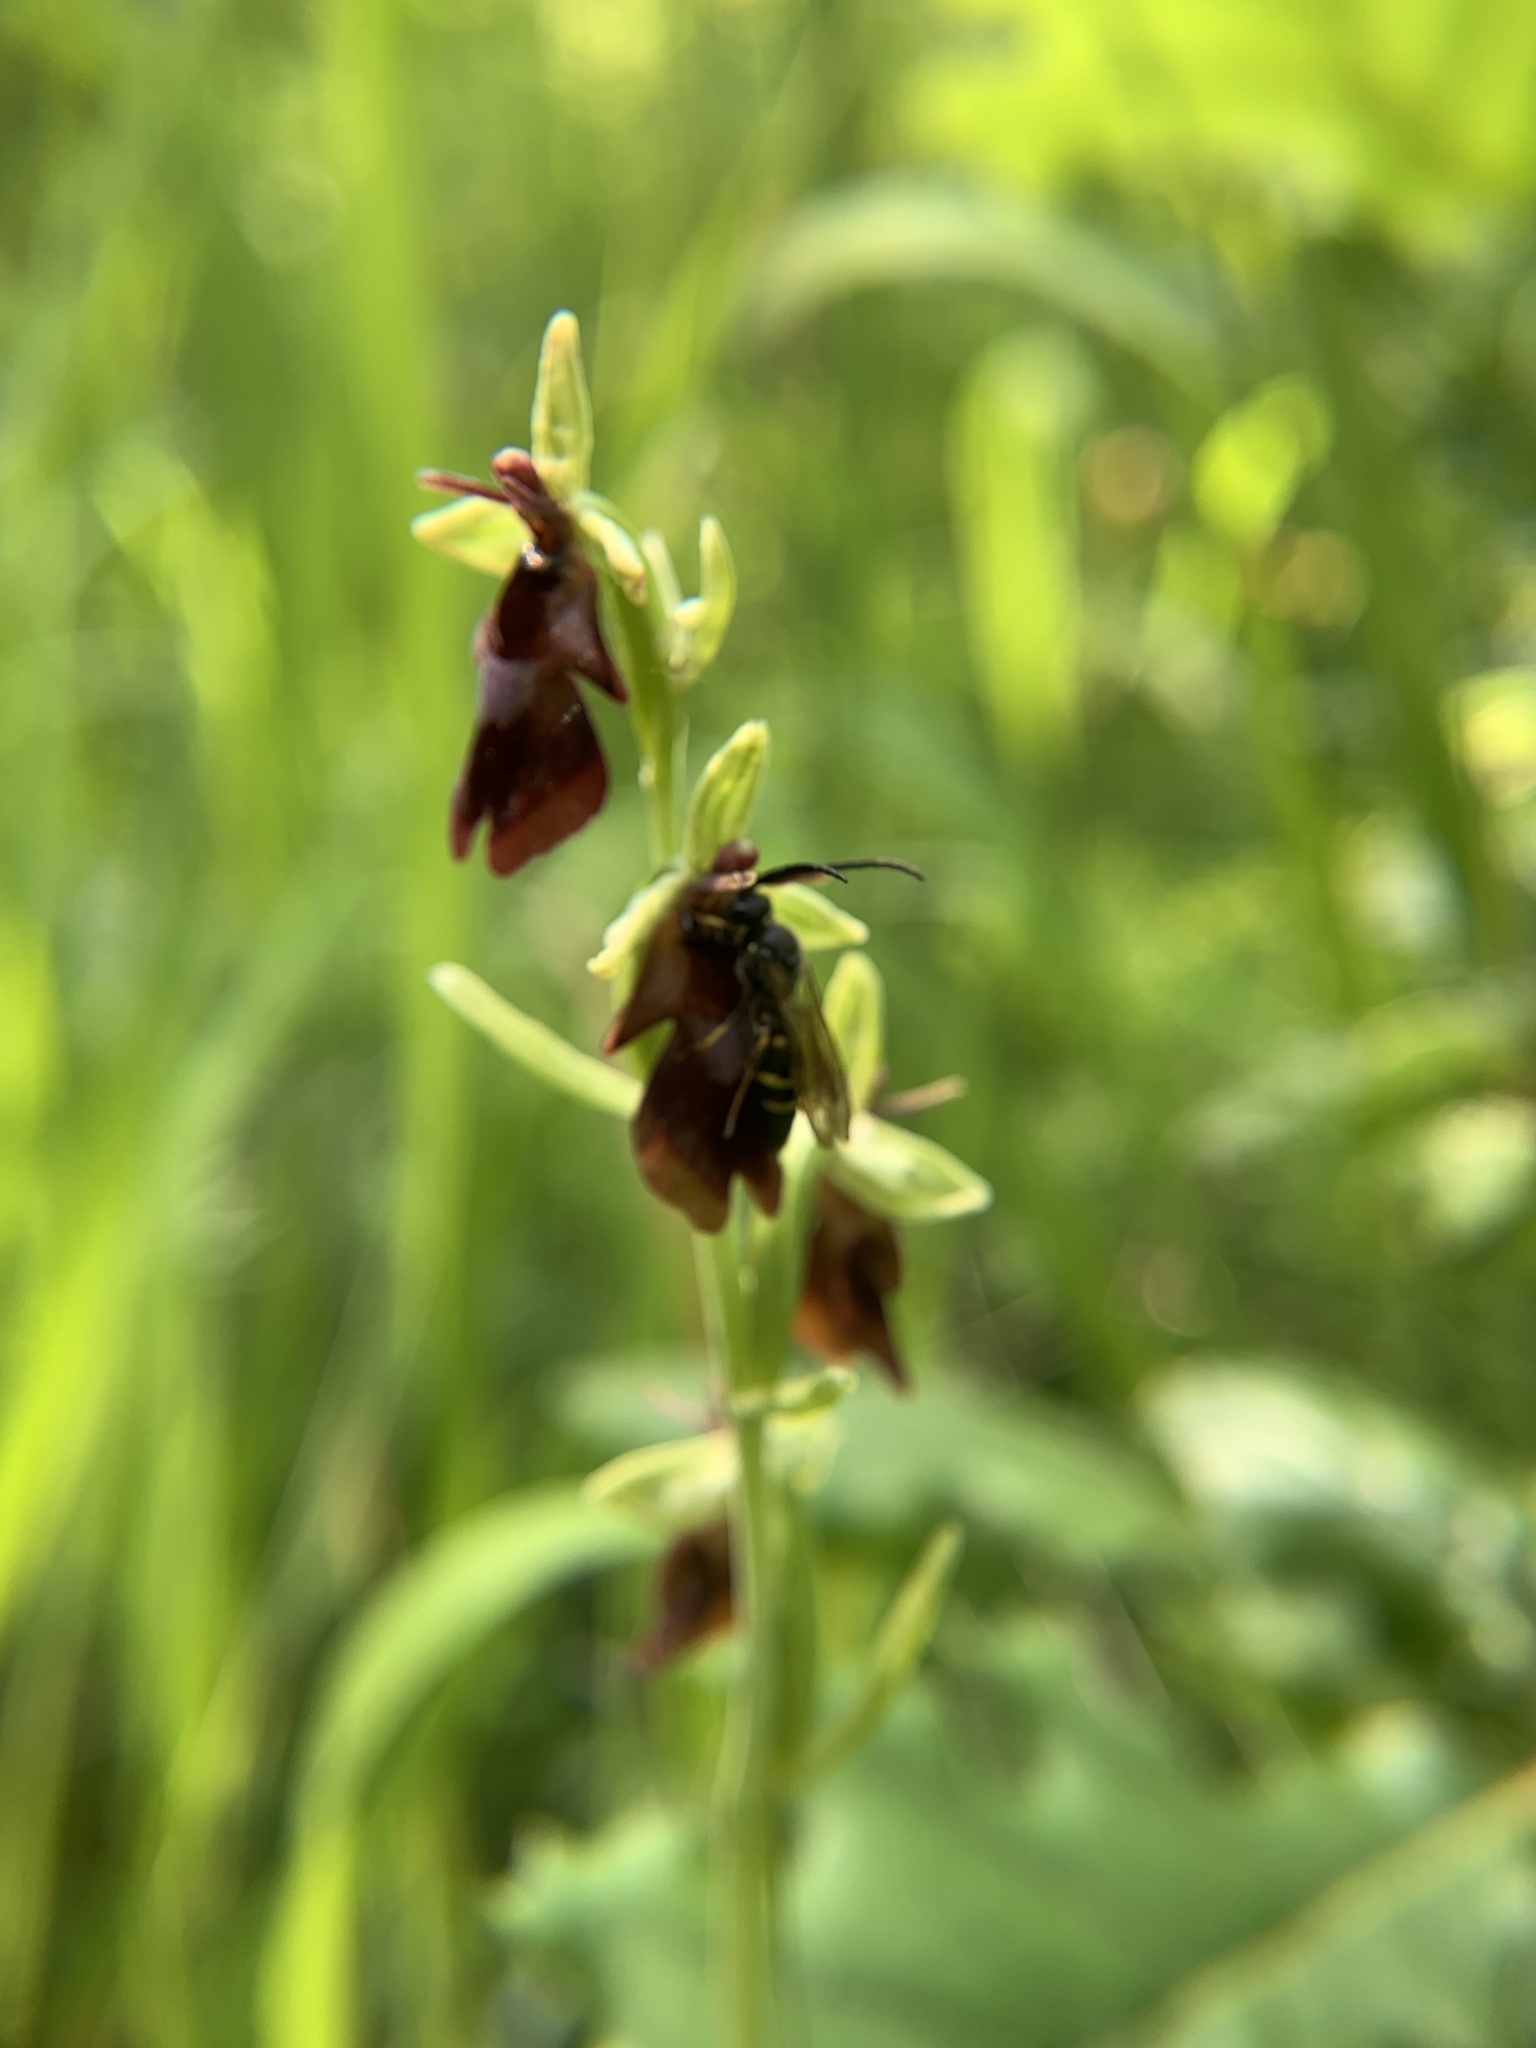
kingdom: Plantae
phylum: Tracheophyta
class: Liliopsida
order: Asparagales
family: Orchidaceae
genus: Ophrys
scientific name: Ophrys insectifera
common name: Fly orchid
